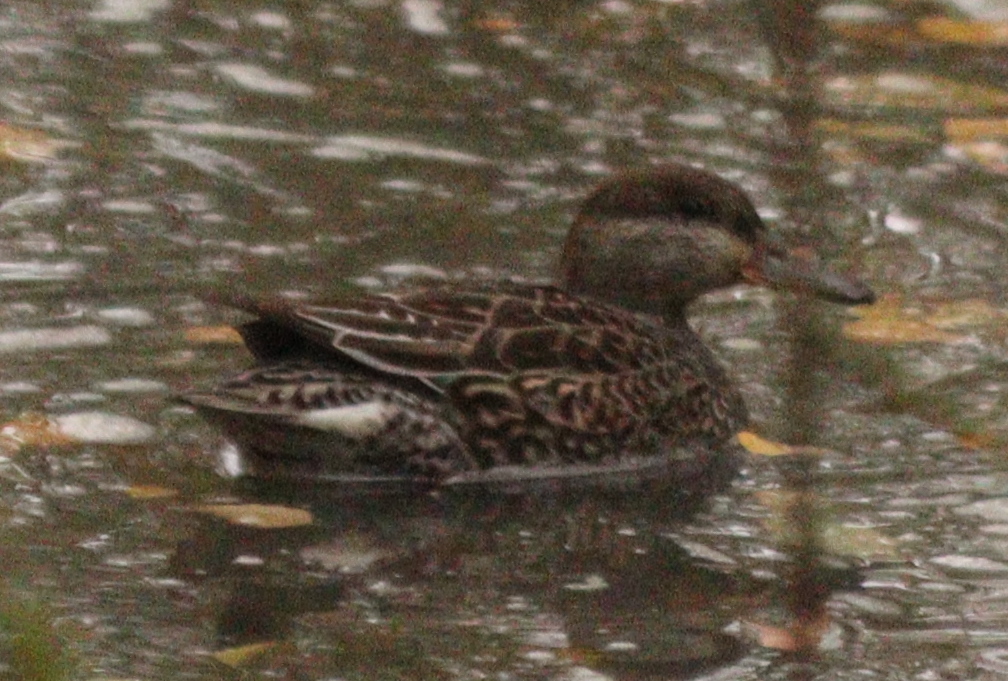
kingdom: Animalia
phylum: Chordata
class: Aves
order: Anseriformes
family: Anatidae
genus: Anas
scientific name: Anas crecca
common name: Eurasian teal
